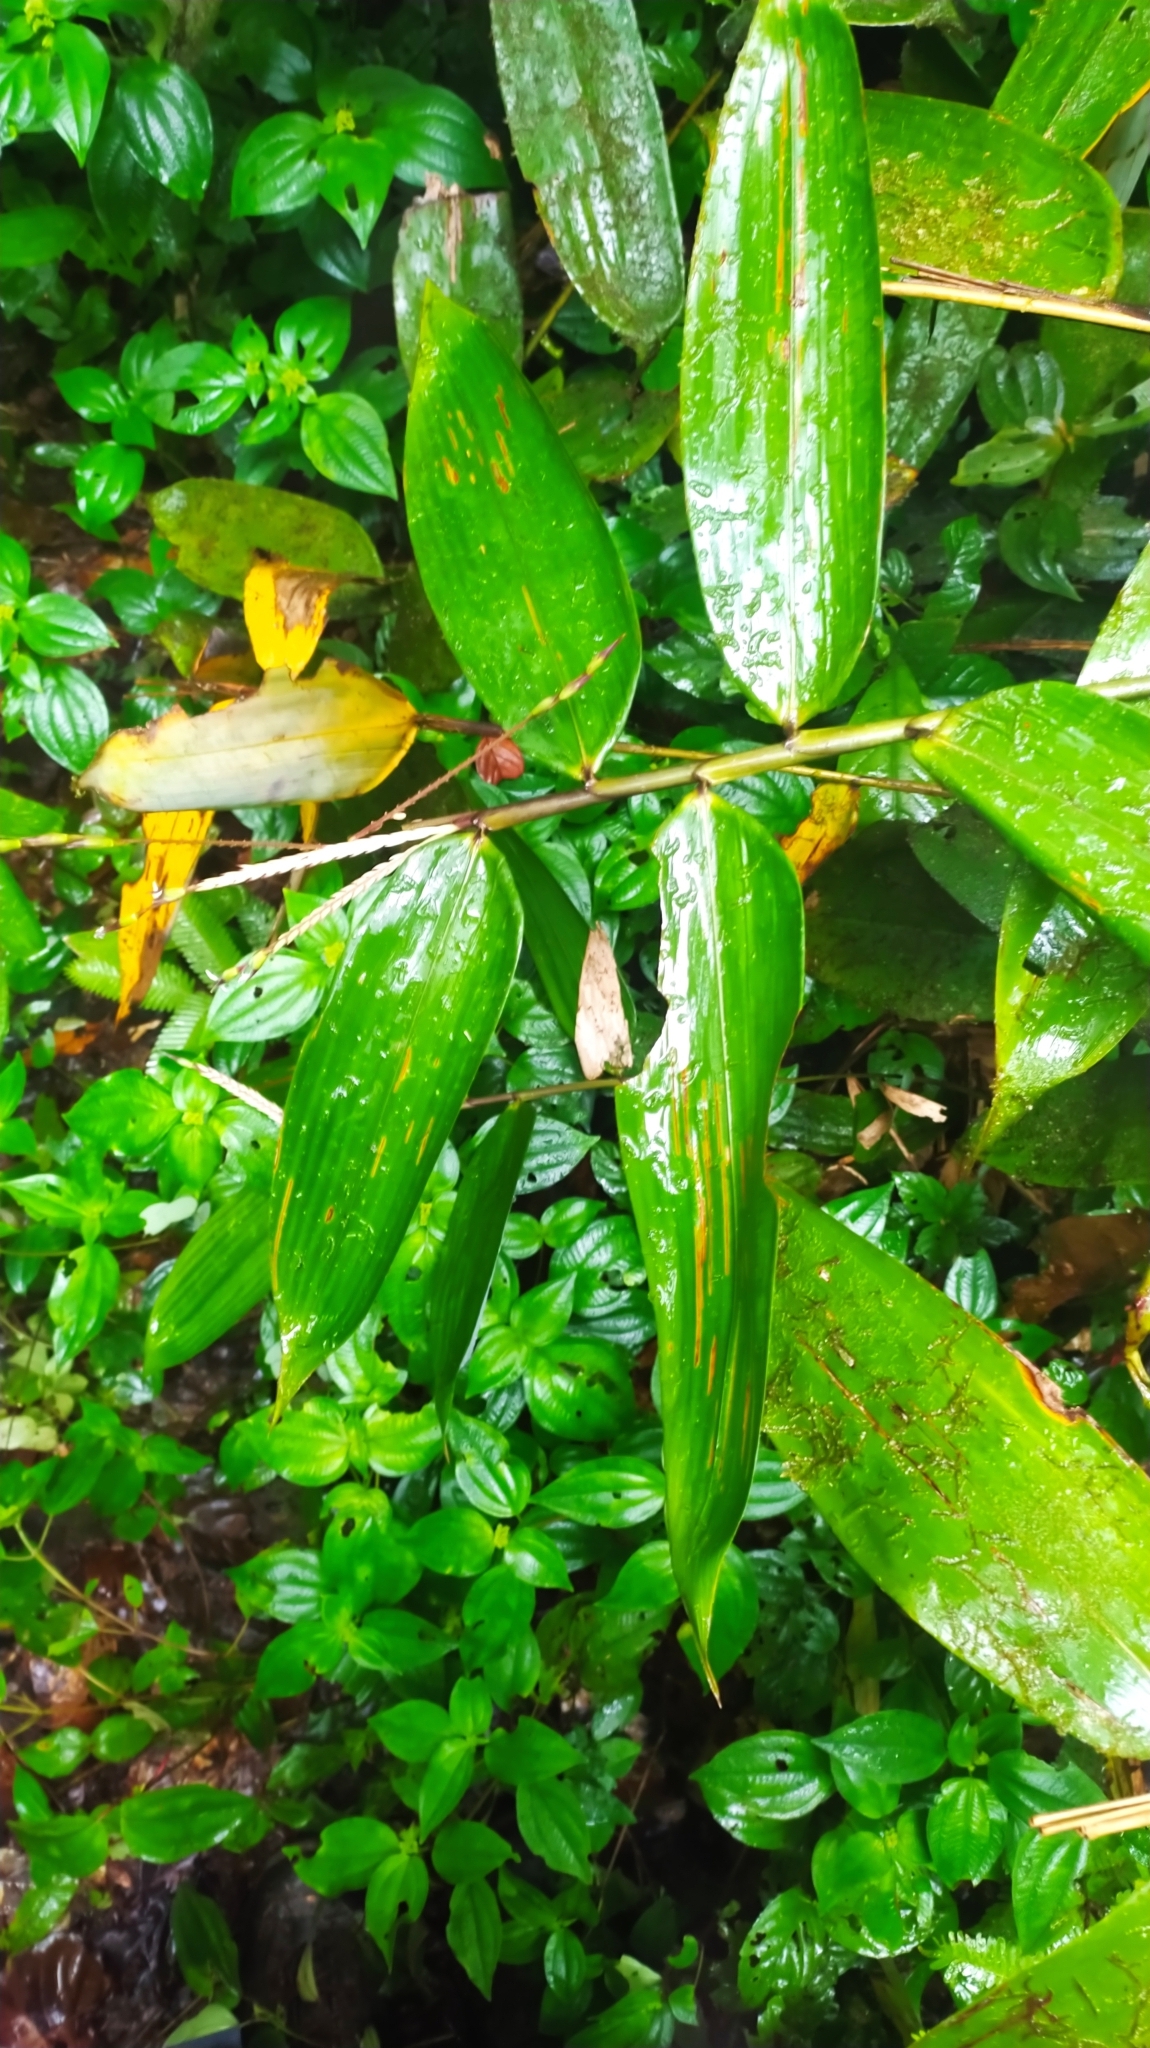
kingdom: Plantae
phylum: Tracheophyta
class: Liliopsida
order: Poales
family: Poaceae
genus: Olyra
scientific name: Olyra obliquifolia
